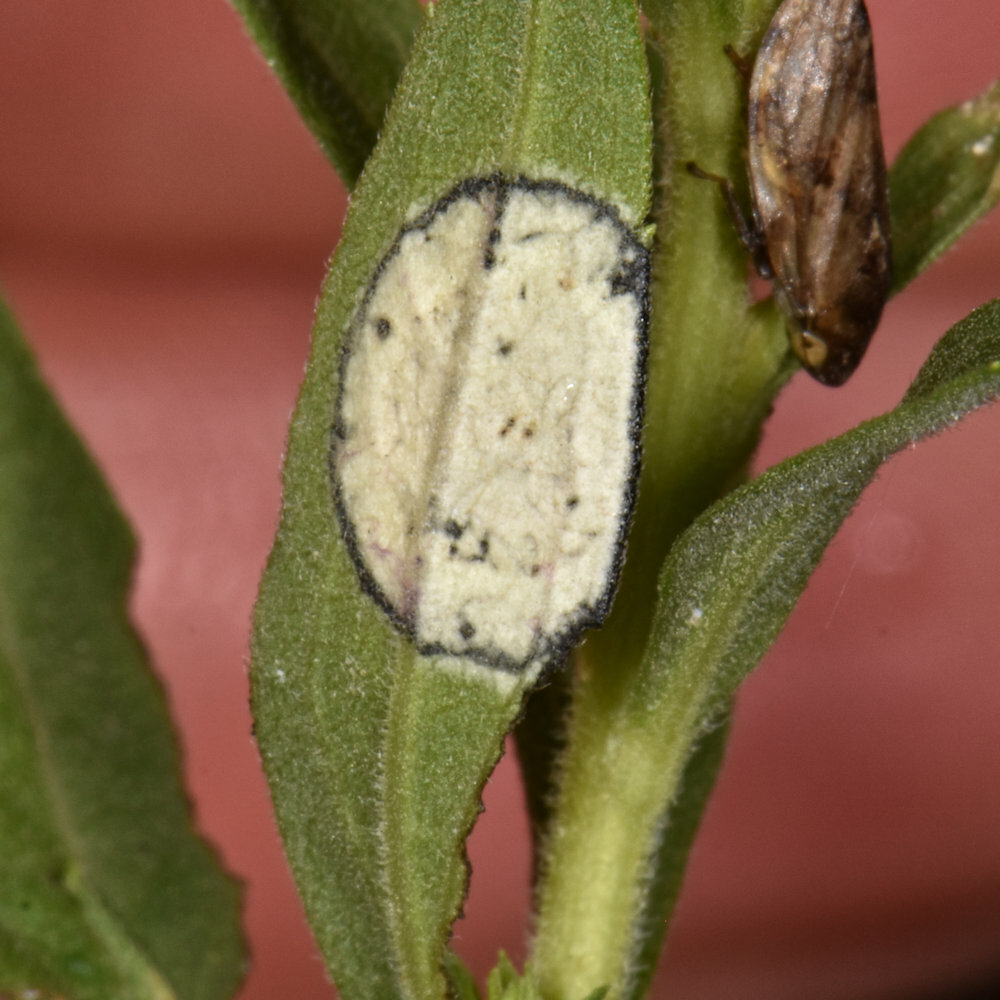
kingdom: Animalia
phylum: Arthropoda
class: Insecta
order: Diptera
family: Cecidomyiidae
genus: Asteromyia
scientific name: Asteromyia carbonifera
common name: Carbonifera goldenrod gall midge
